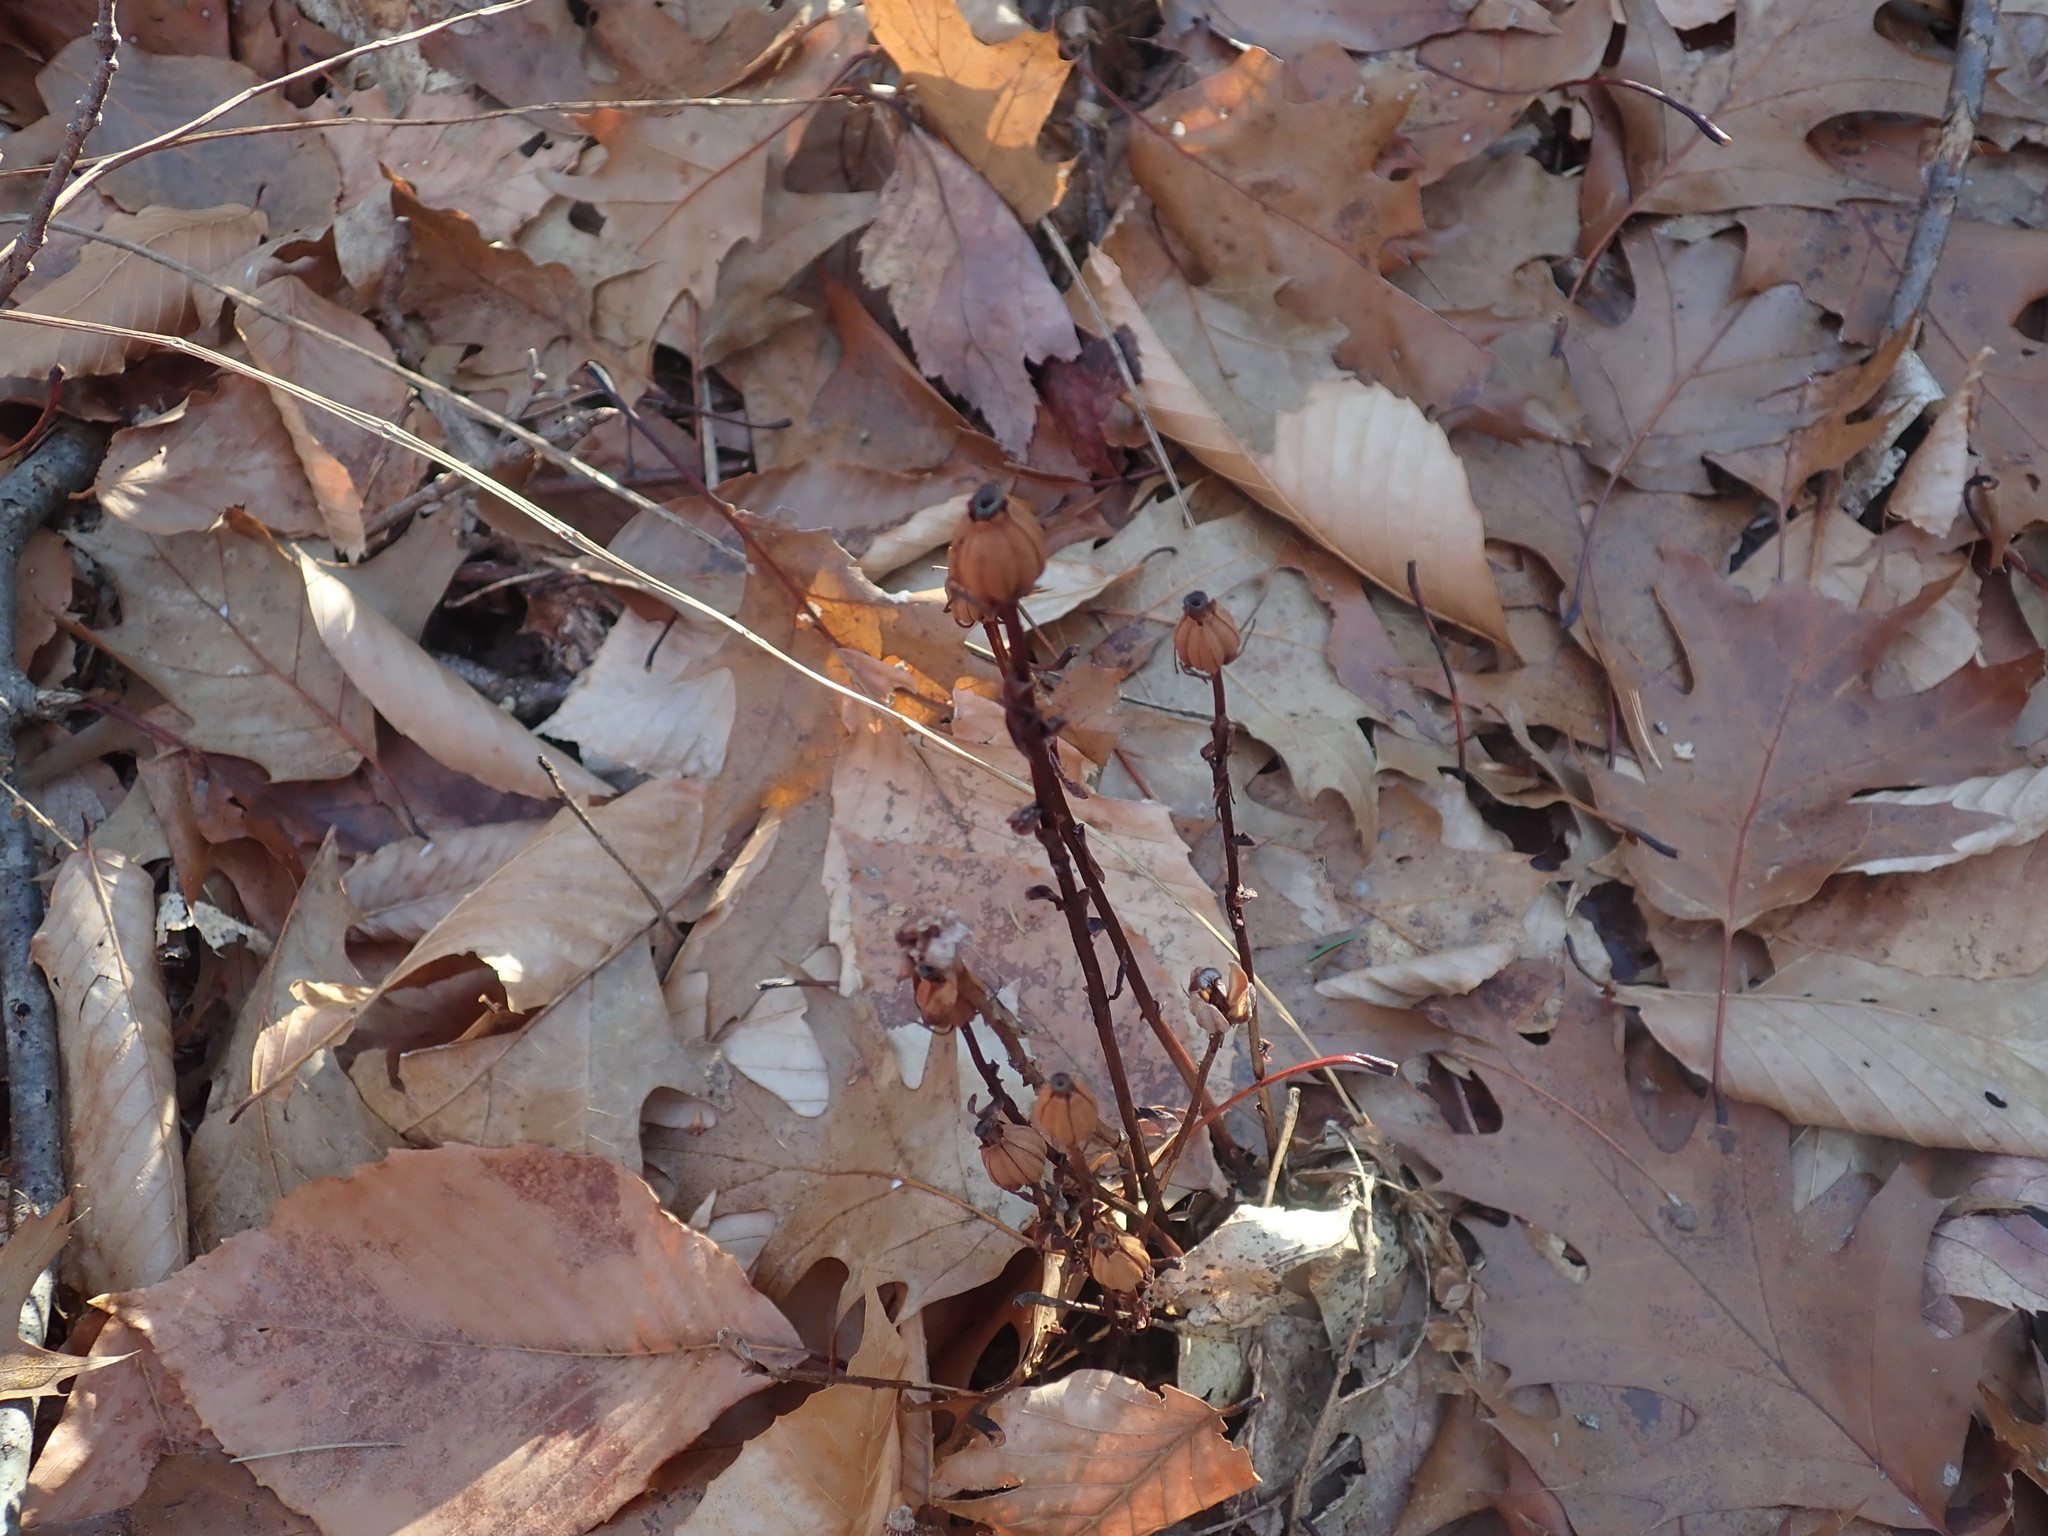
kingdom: Plantae
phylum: Tracheophyta
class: Magnoliopsida
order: Ericales
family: Ericaceae
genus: Monotropa
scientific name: Monotropa uniflora
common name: Convulsion root
